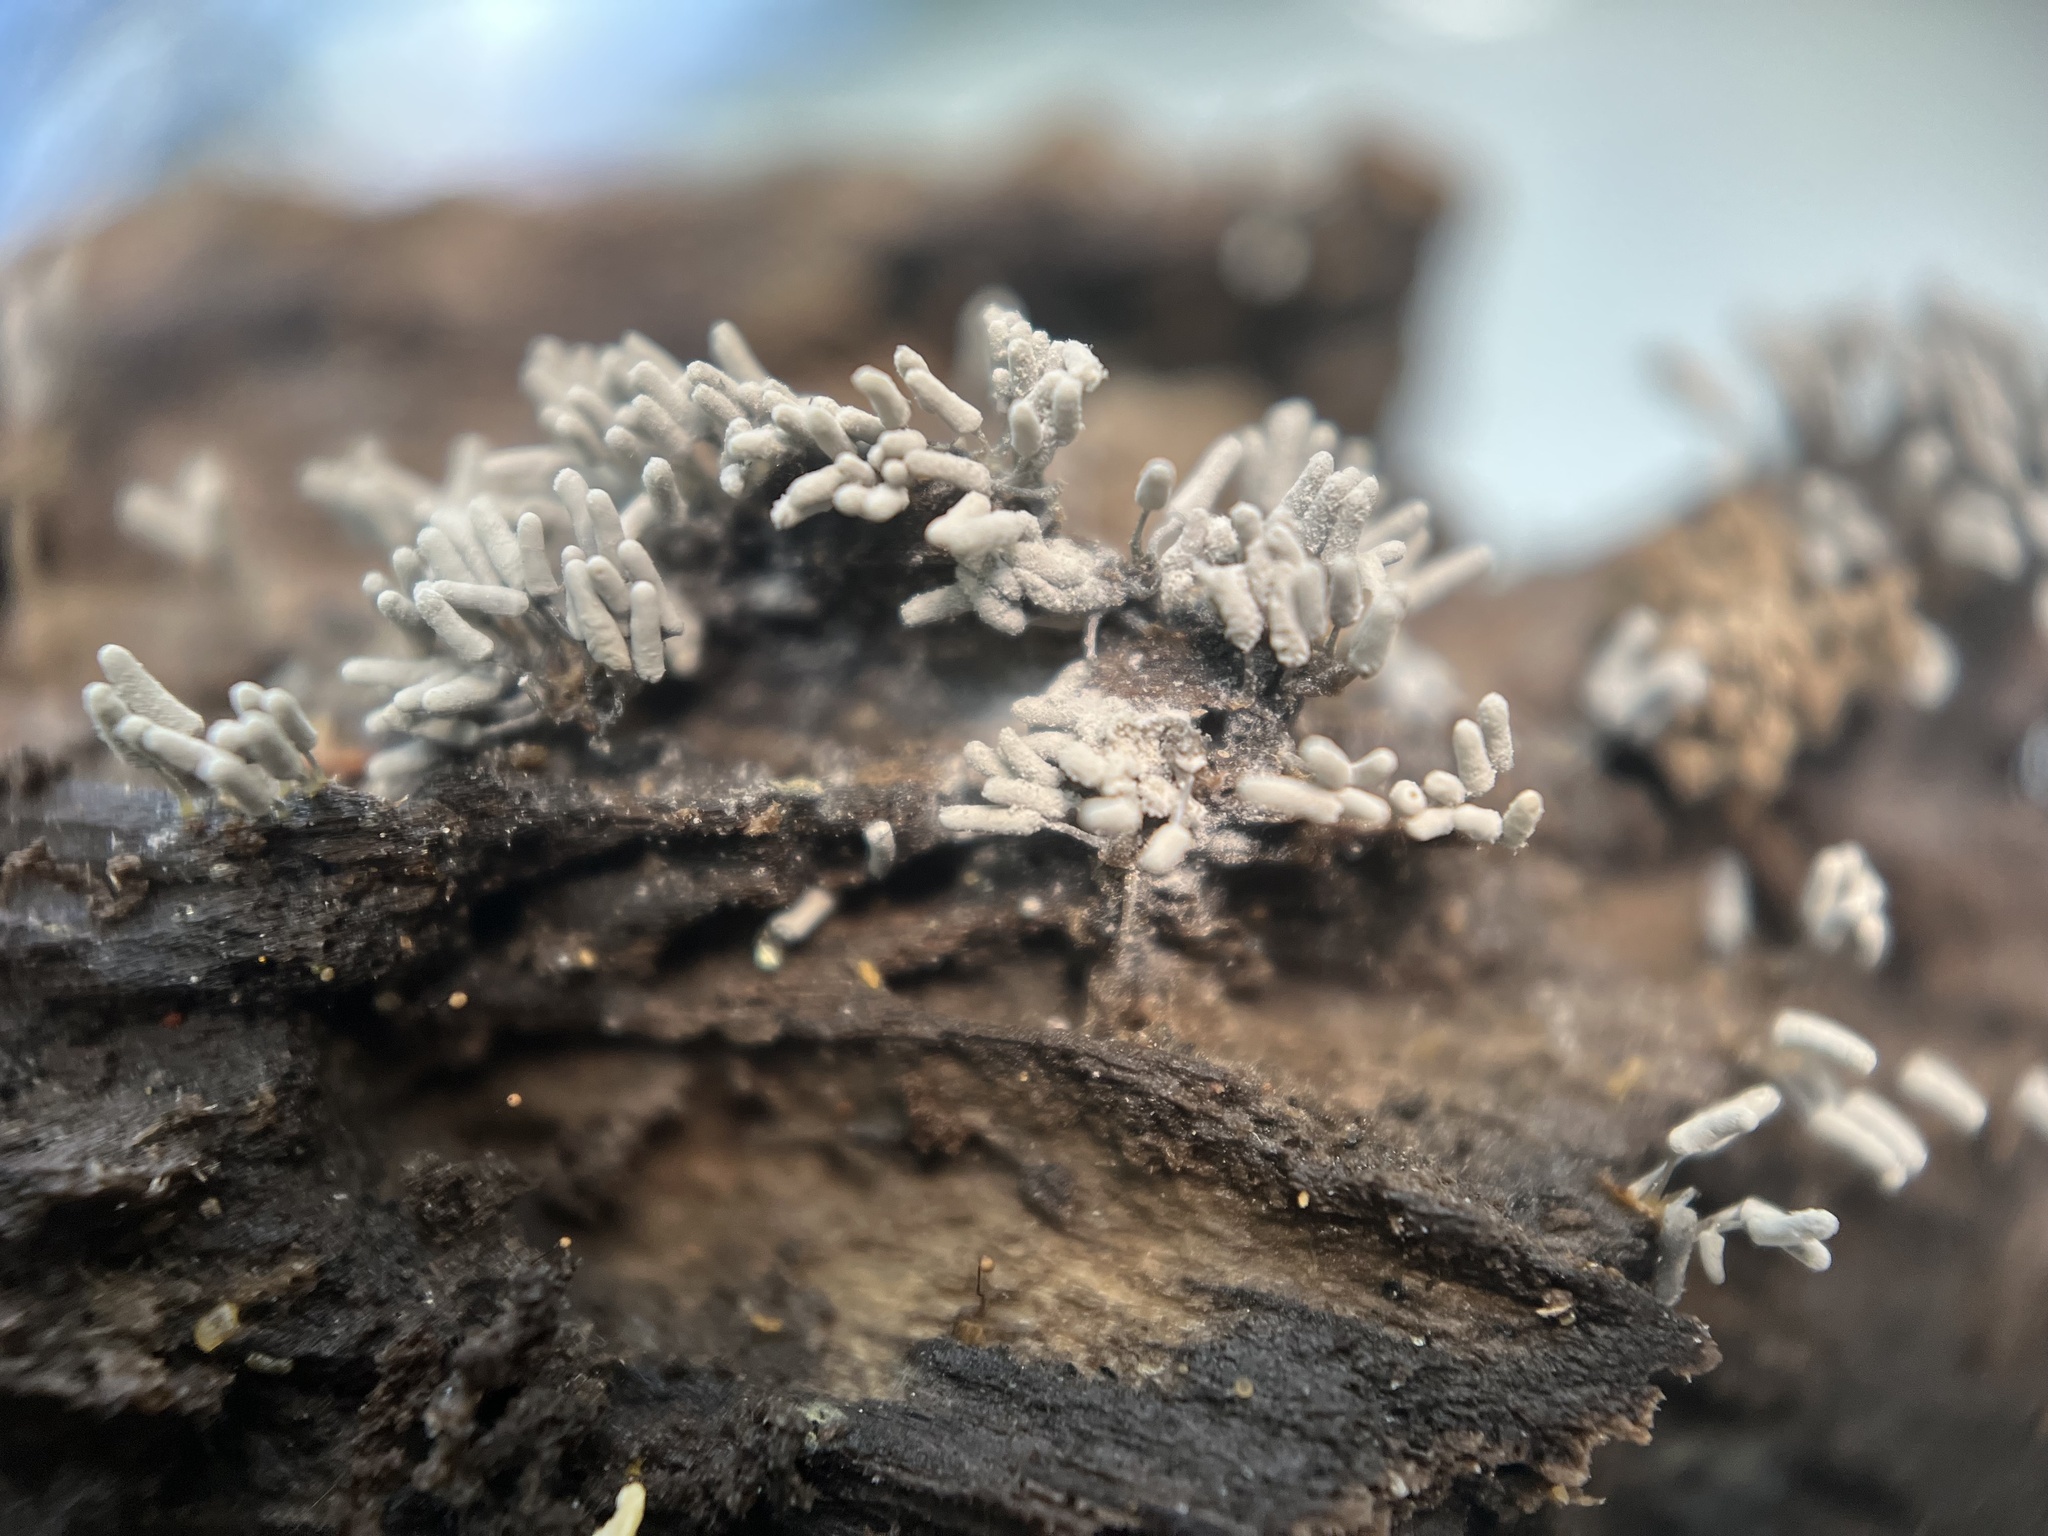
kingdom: Protozoa
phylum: Mycetozoa
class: Myxomycetes
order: Trichiales
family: Arcyriaceae
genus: Arcyria
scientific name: Arcyria cinerea
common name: White carnival candy slime mold
